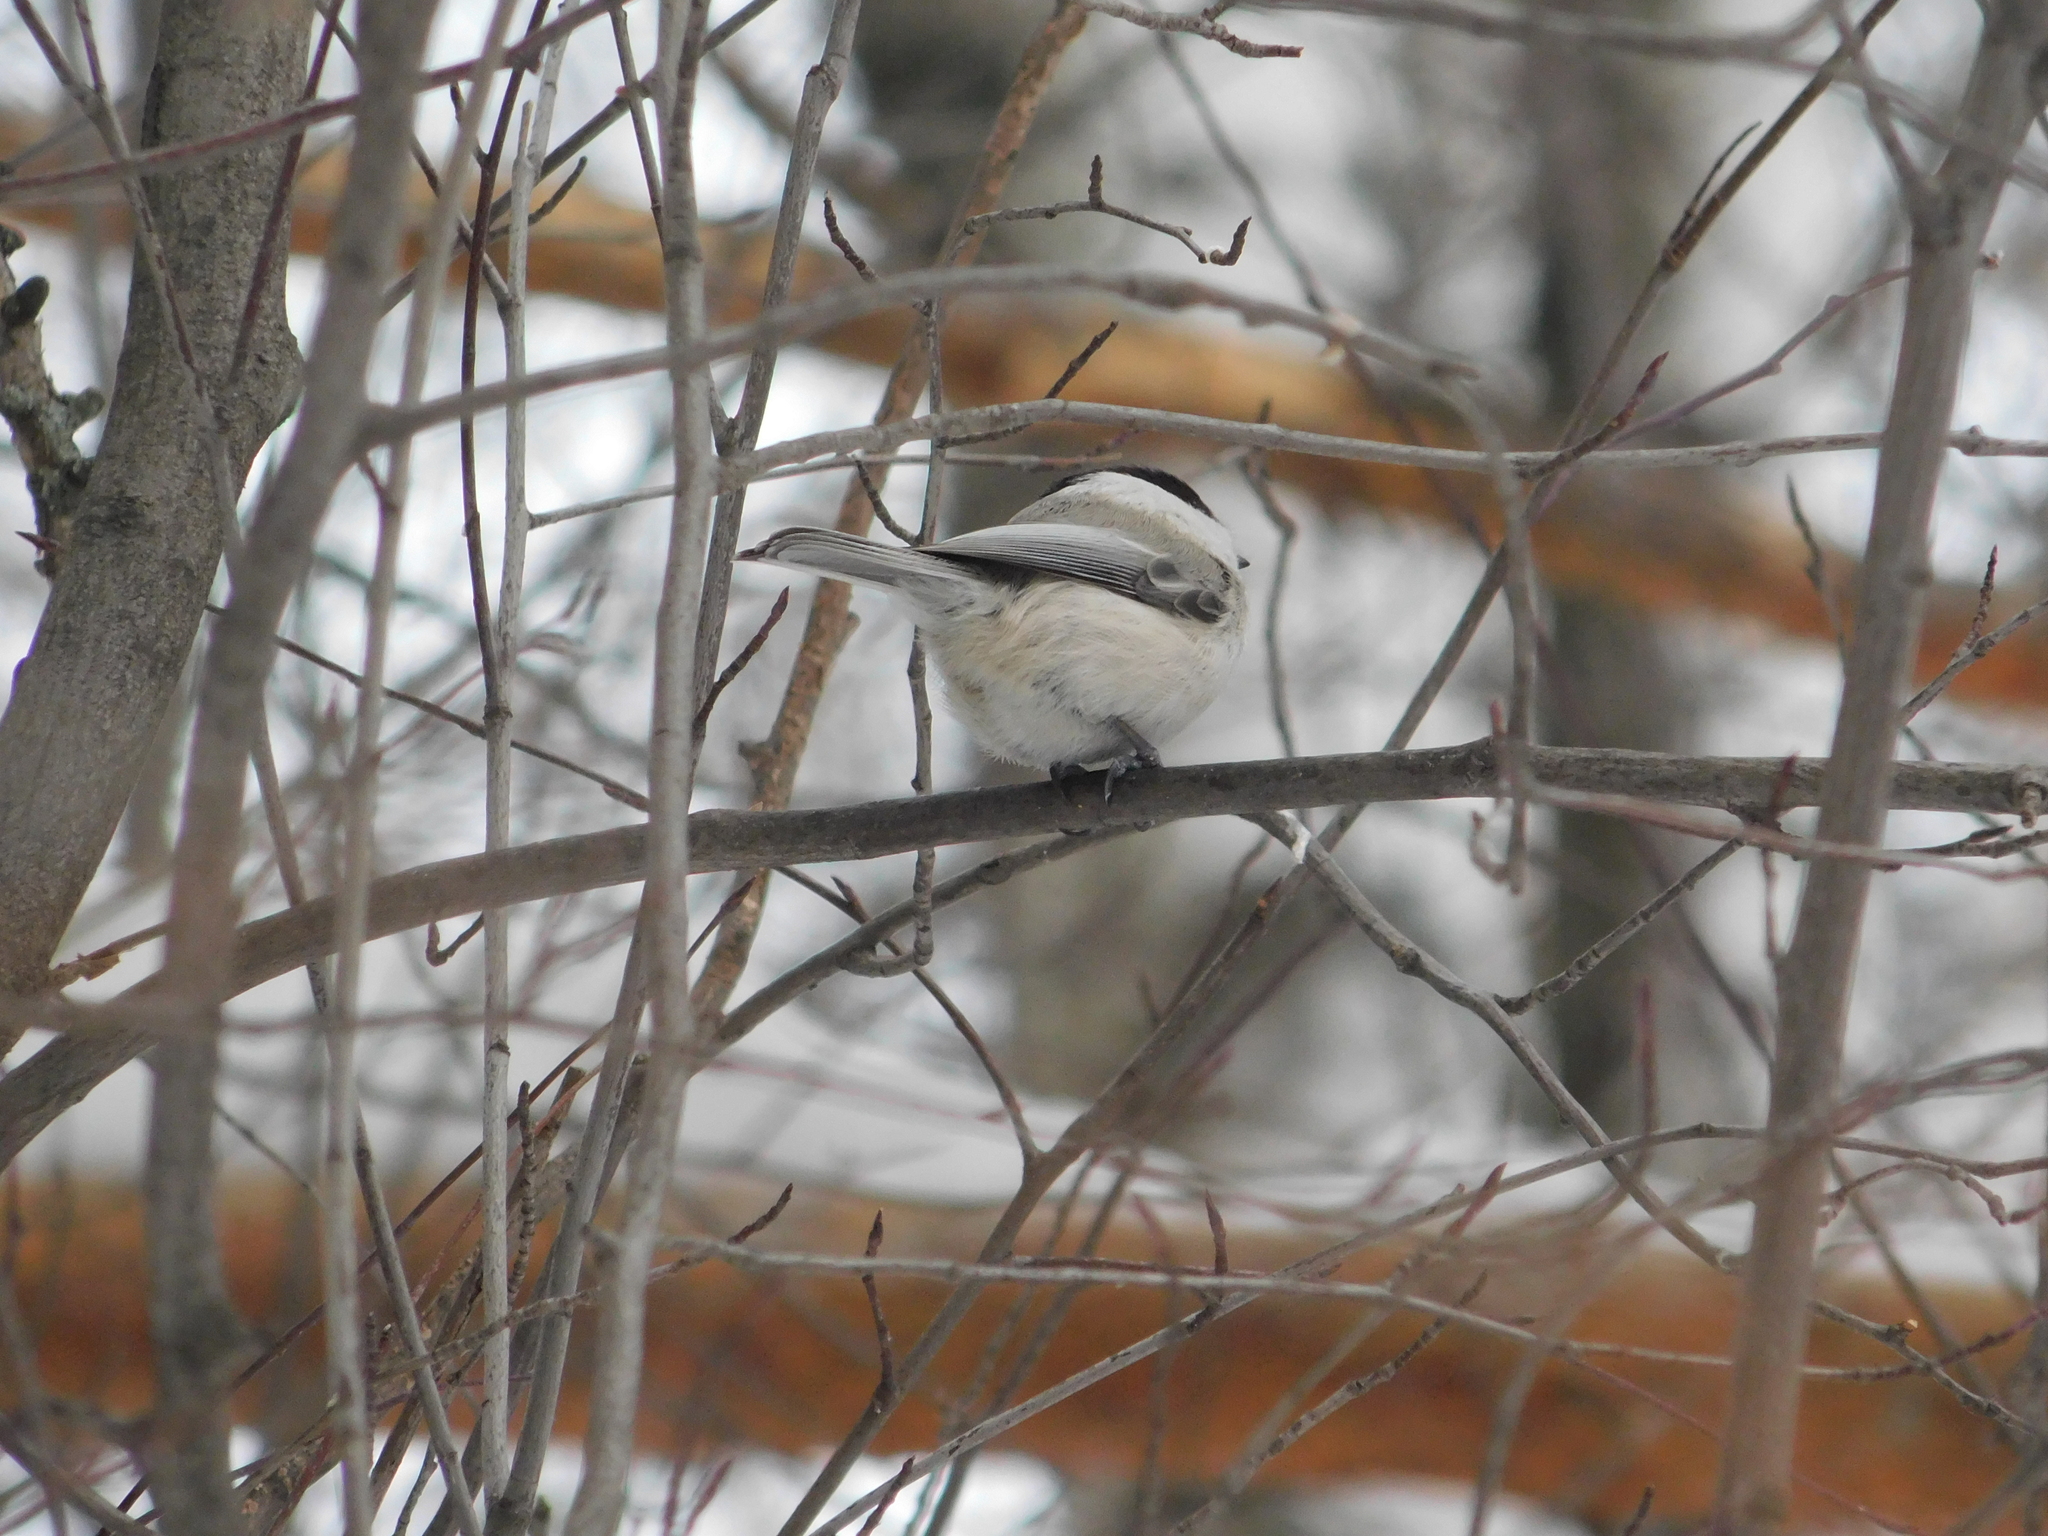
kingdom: Animalia
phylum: Chordata
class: Aves
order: Passeriformes
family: Paridae
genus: Poecile
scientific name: Poecile montanus
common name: Willow tit
